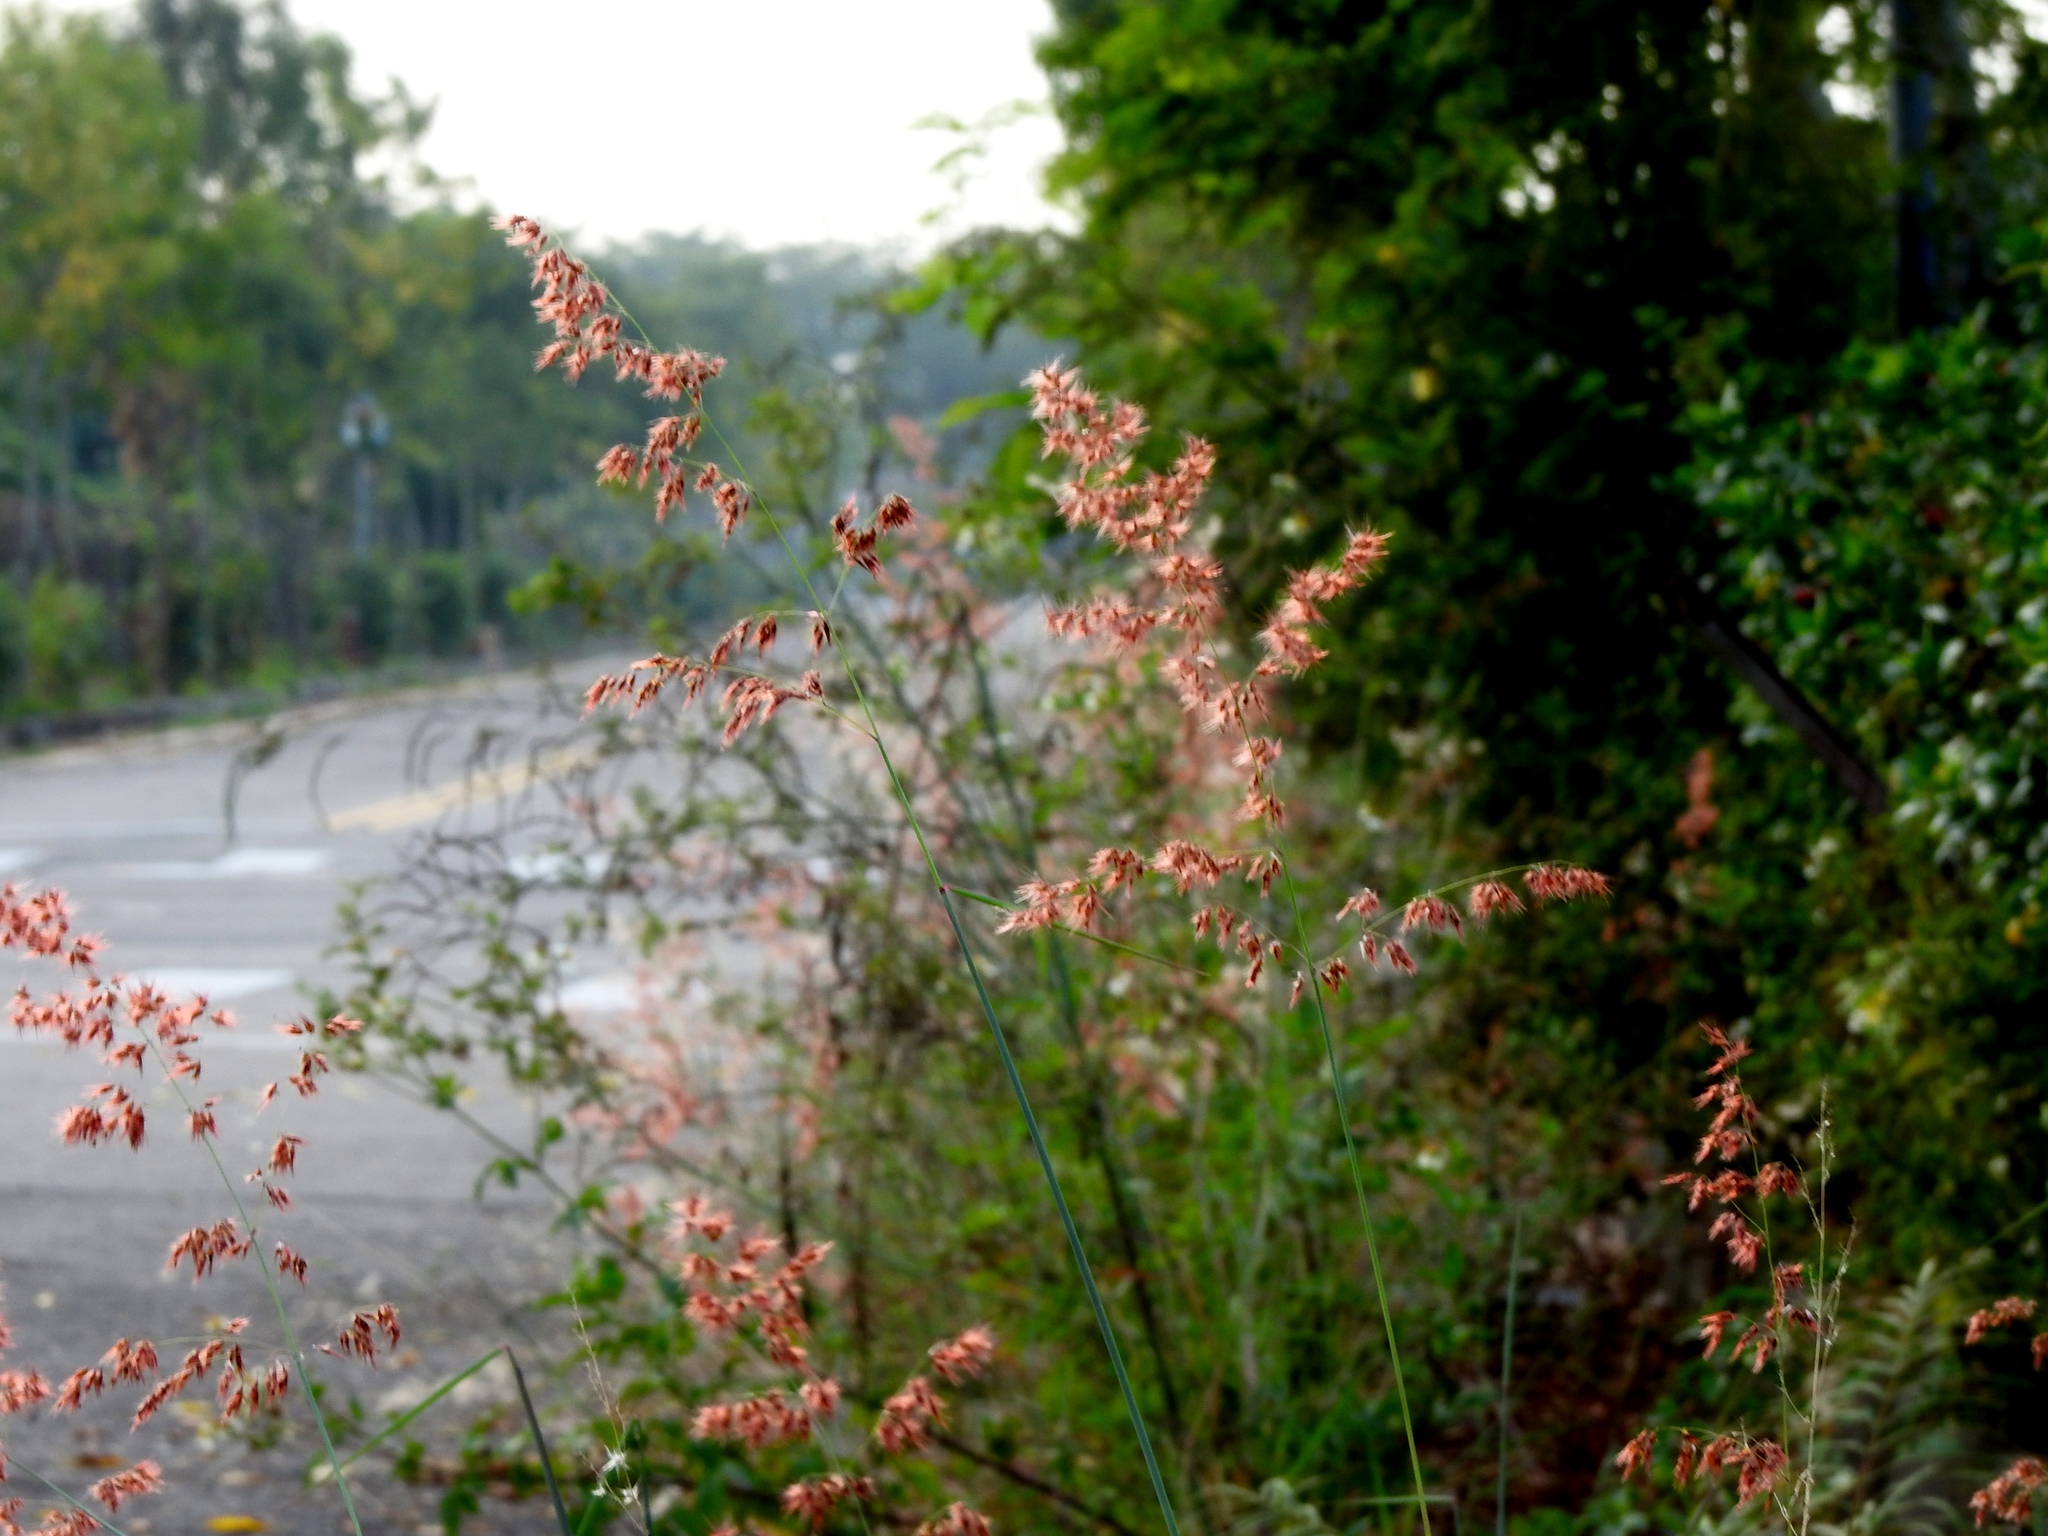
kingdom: Plantae
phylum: Tracheophyta
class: Liliopsida
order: Poales
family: Poaceae
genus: Melinis
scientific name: Melinis repens
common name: Rose natal grass
